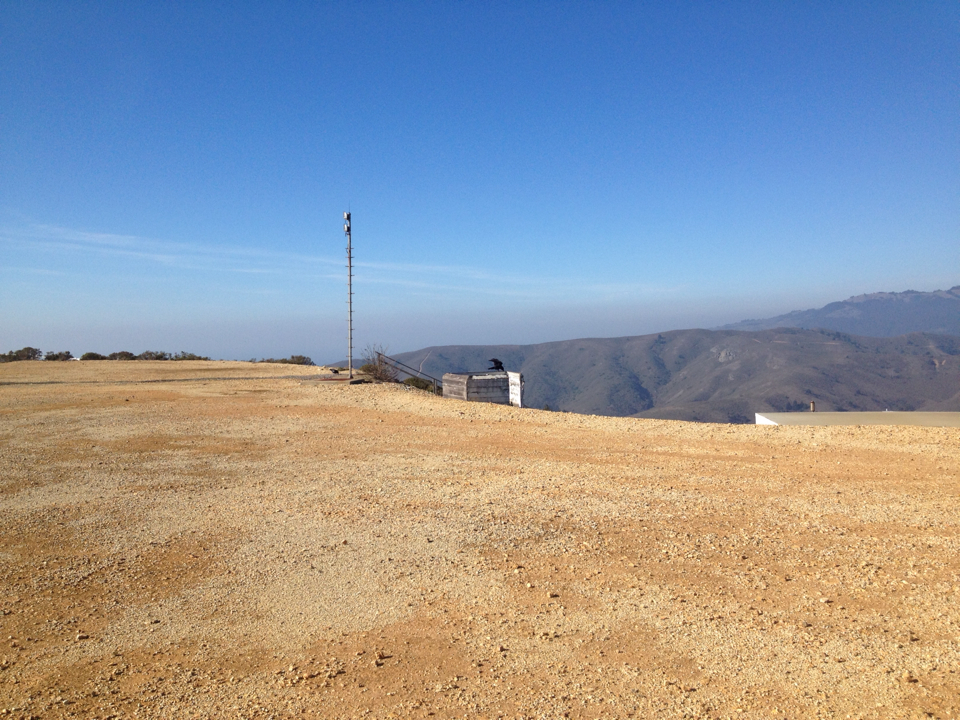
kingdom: Animalia
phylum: Chordata
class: Aves
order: Passeriformes
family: Corvidae
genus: Corvus
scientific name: Corvus
